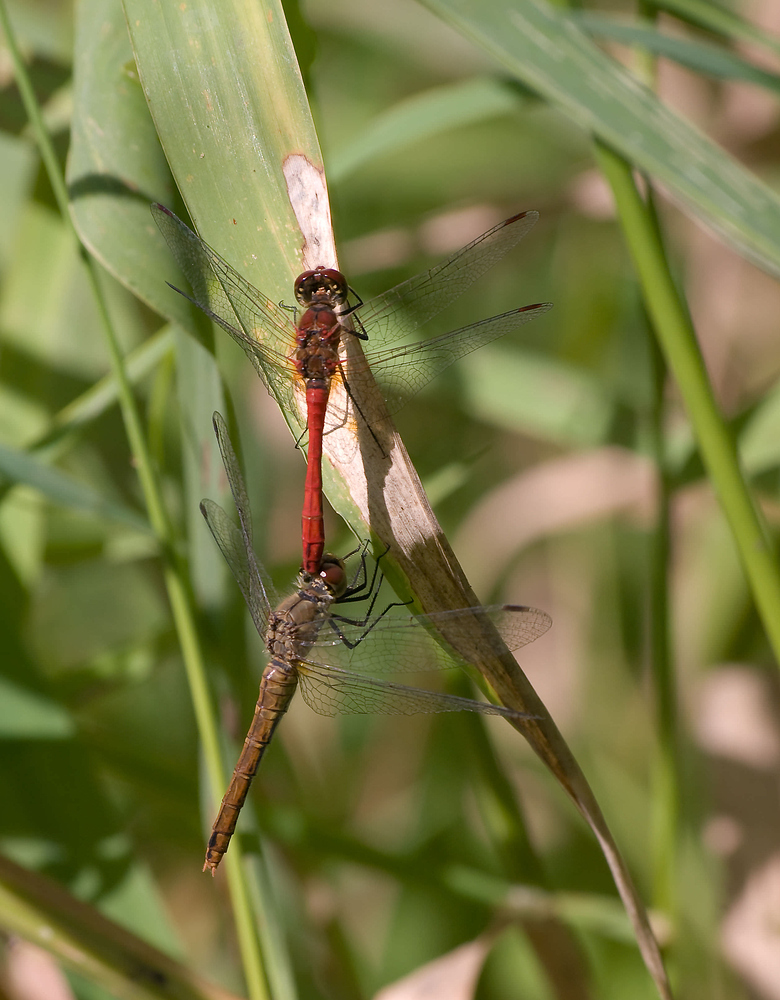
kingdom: Animalia
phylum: Arthropoda
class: Insecta
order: Odonata
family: Libellulidae
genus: Sympetrum
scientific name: Sympetrum sanguineum
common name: Ruddy darter
